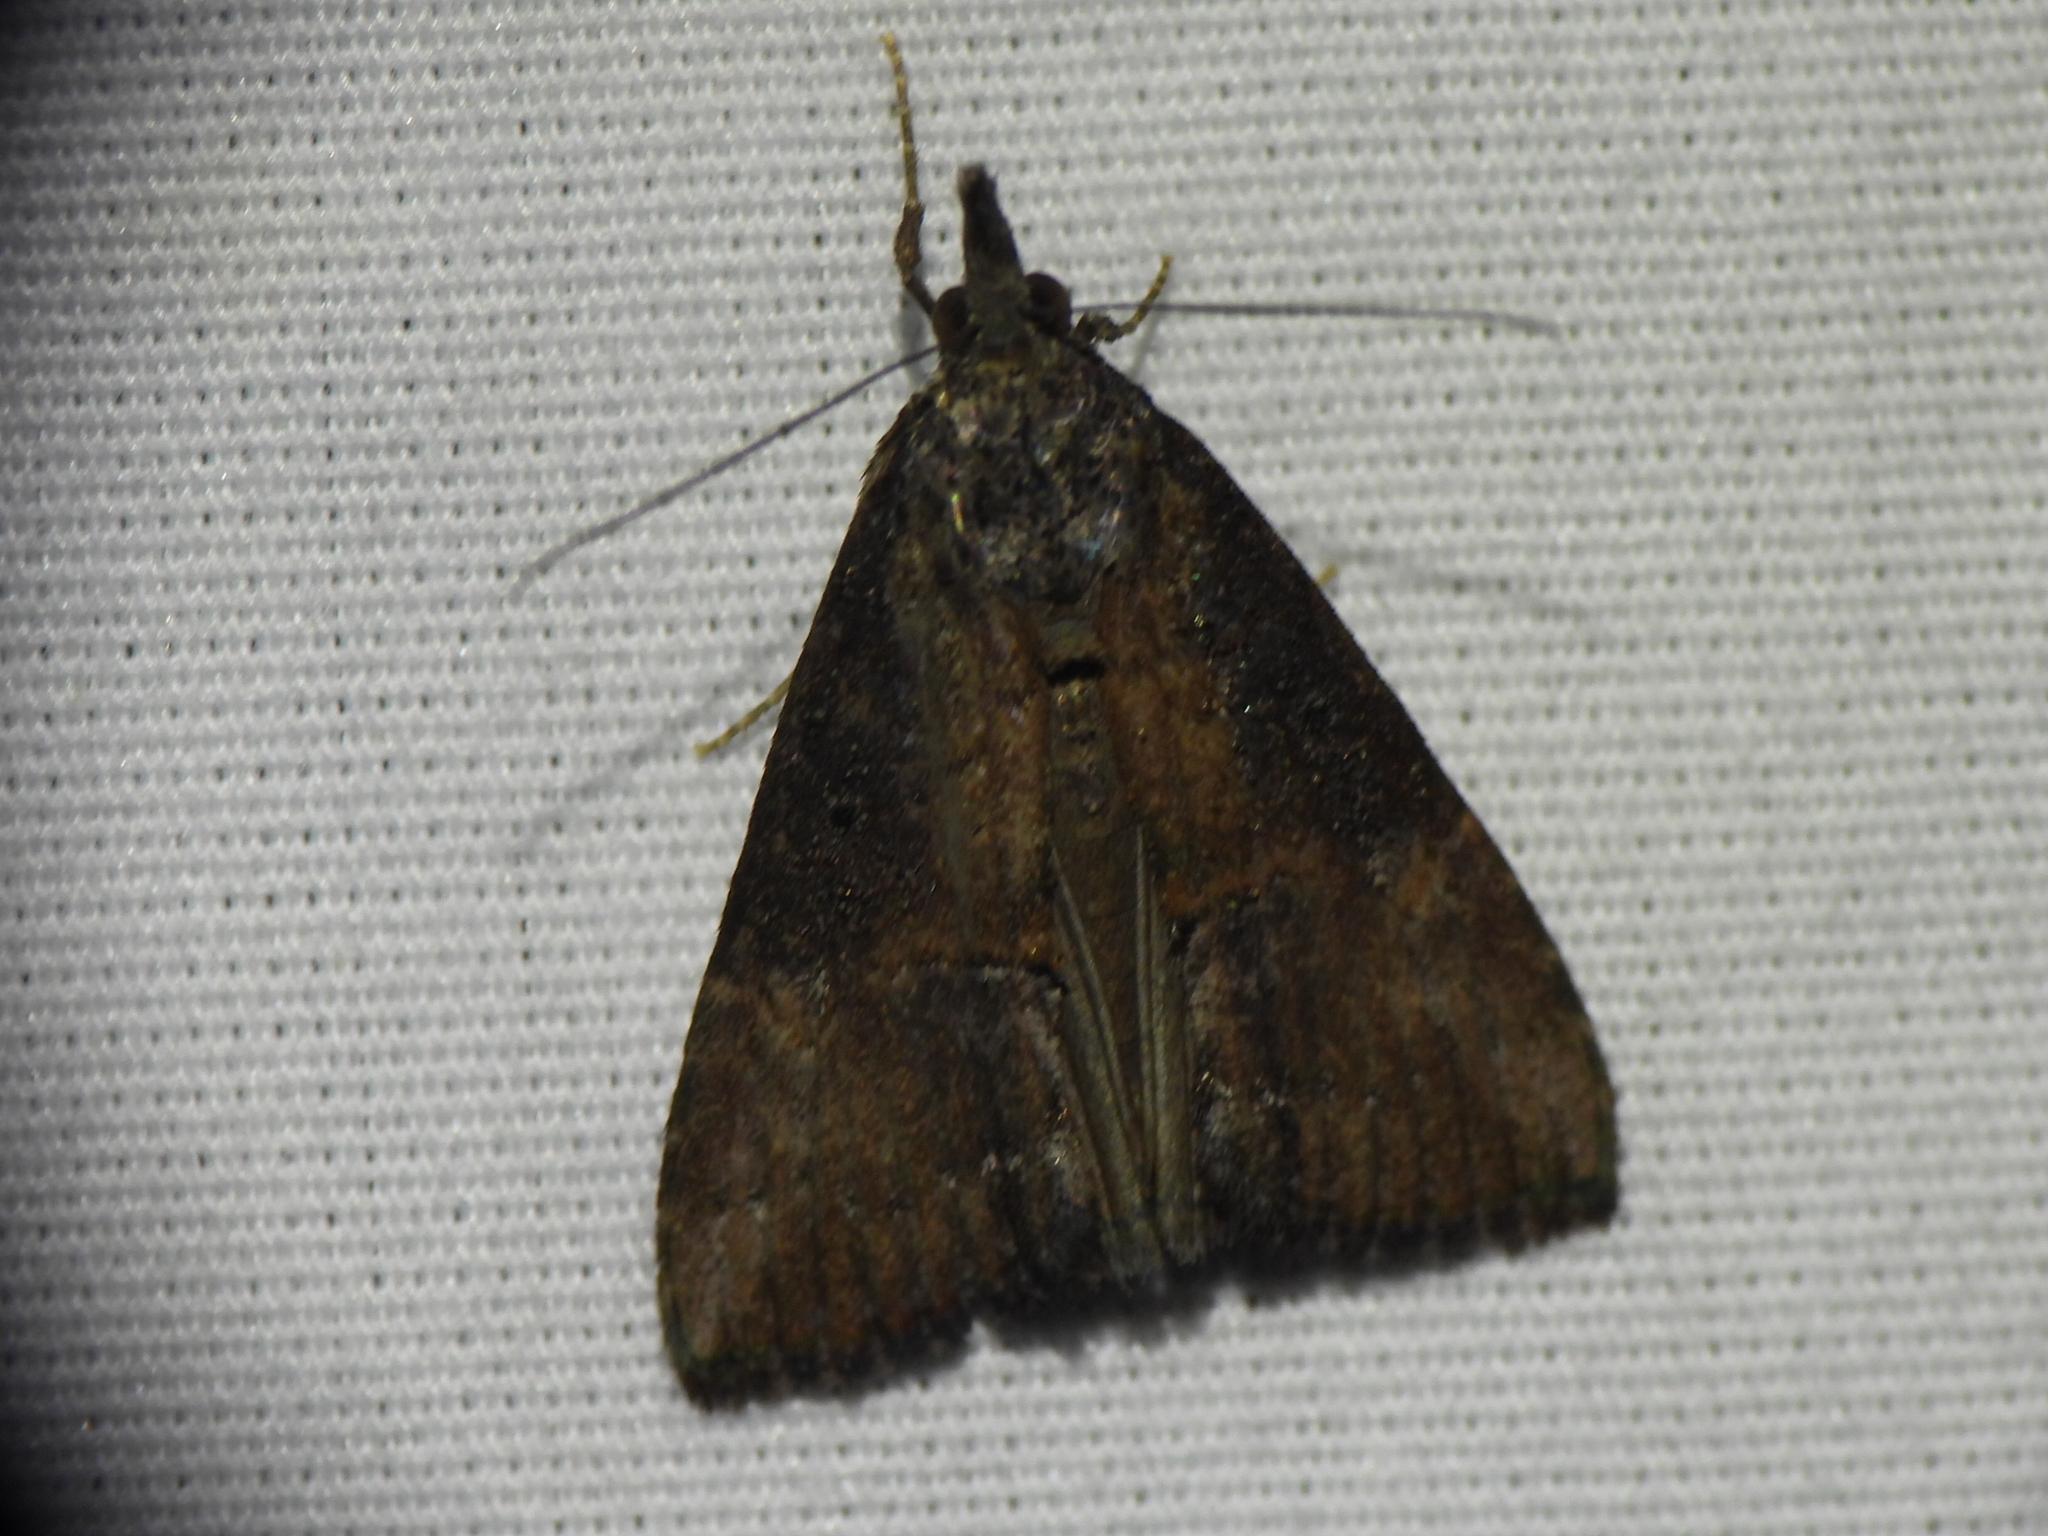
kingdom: Animalia
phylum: Arthropoda
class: Insecta
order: Lepidoptera
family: Erebidae
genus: Hypena
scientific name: Hypena scabra
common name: Green cloverworm
